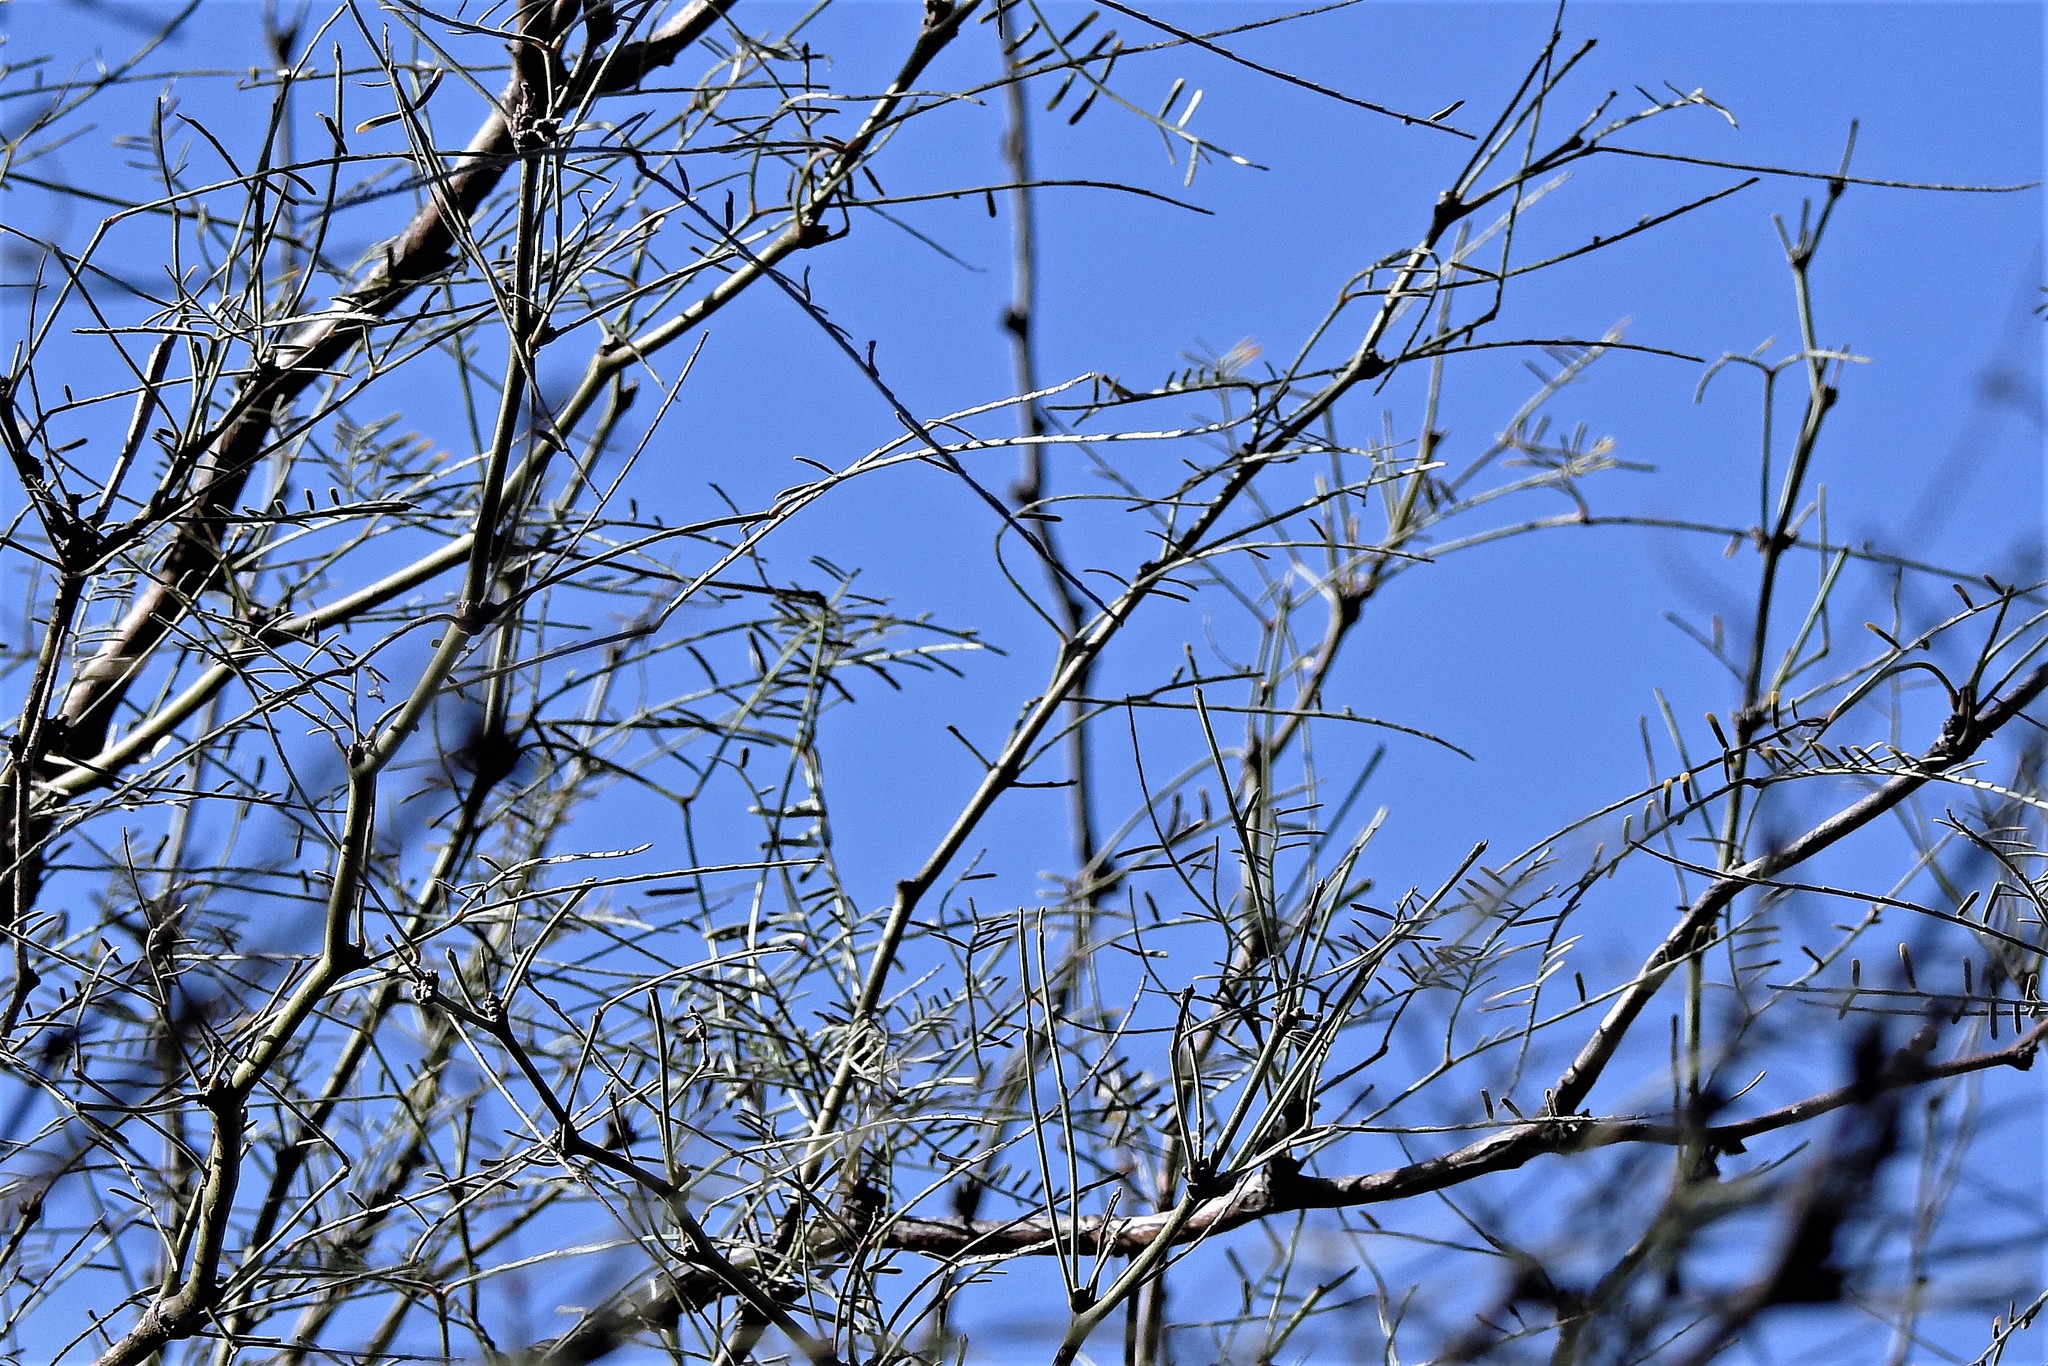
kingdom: Plantae
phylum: Tracheophyta
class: Magnoliopsida
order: Fabales
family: Fabaceae
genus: Prosopis
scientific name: Prosopis flexuosa
